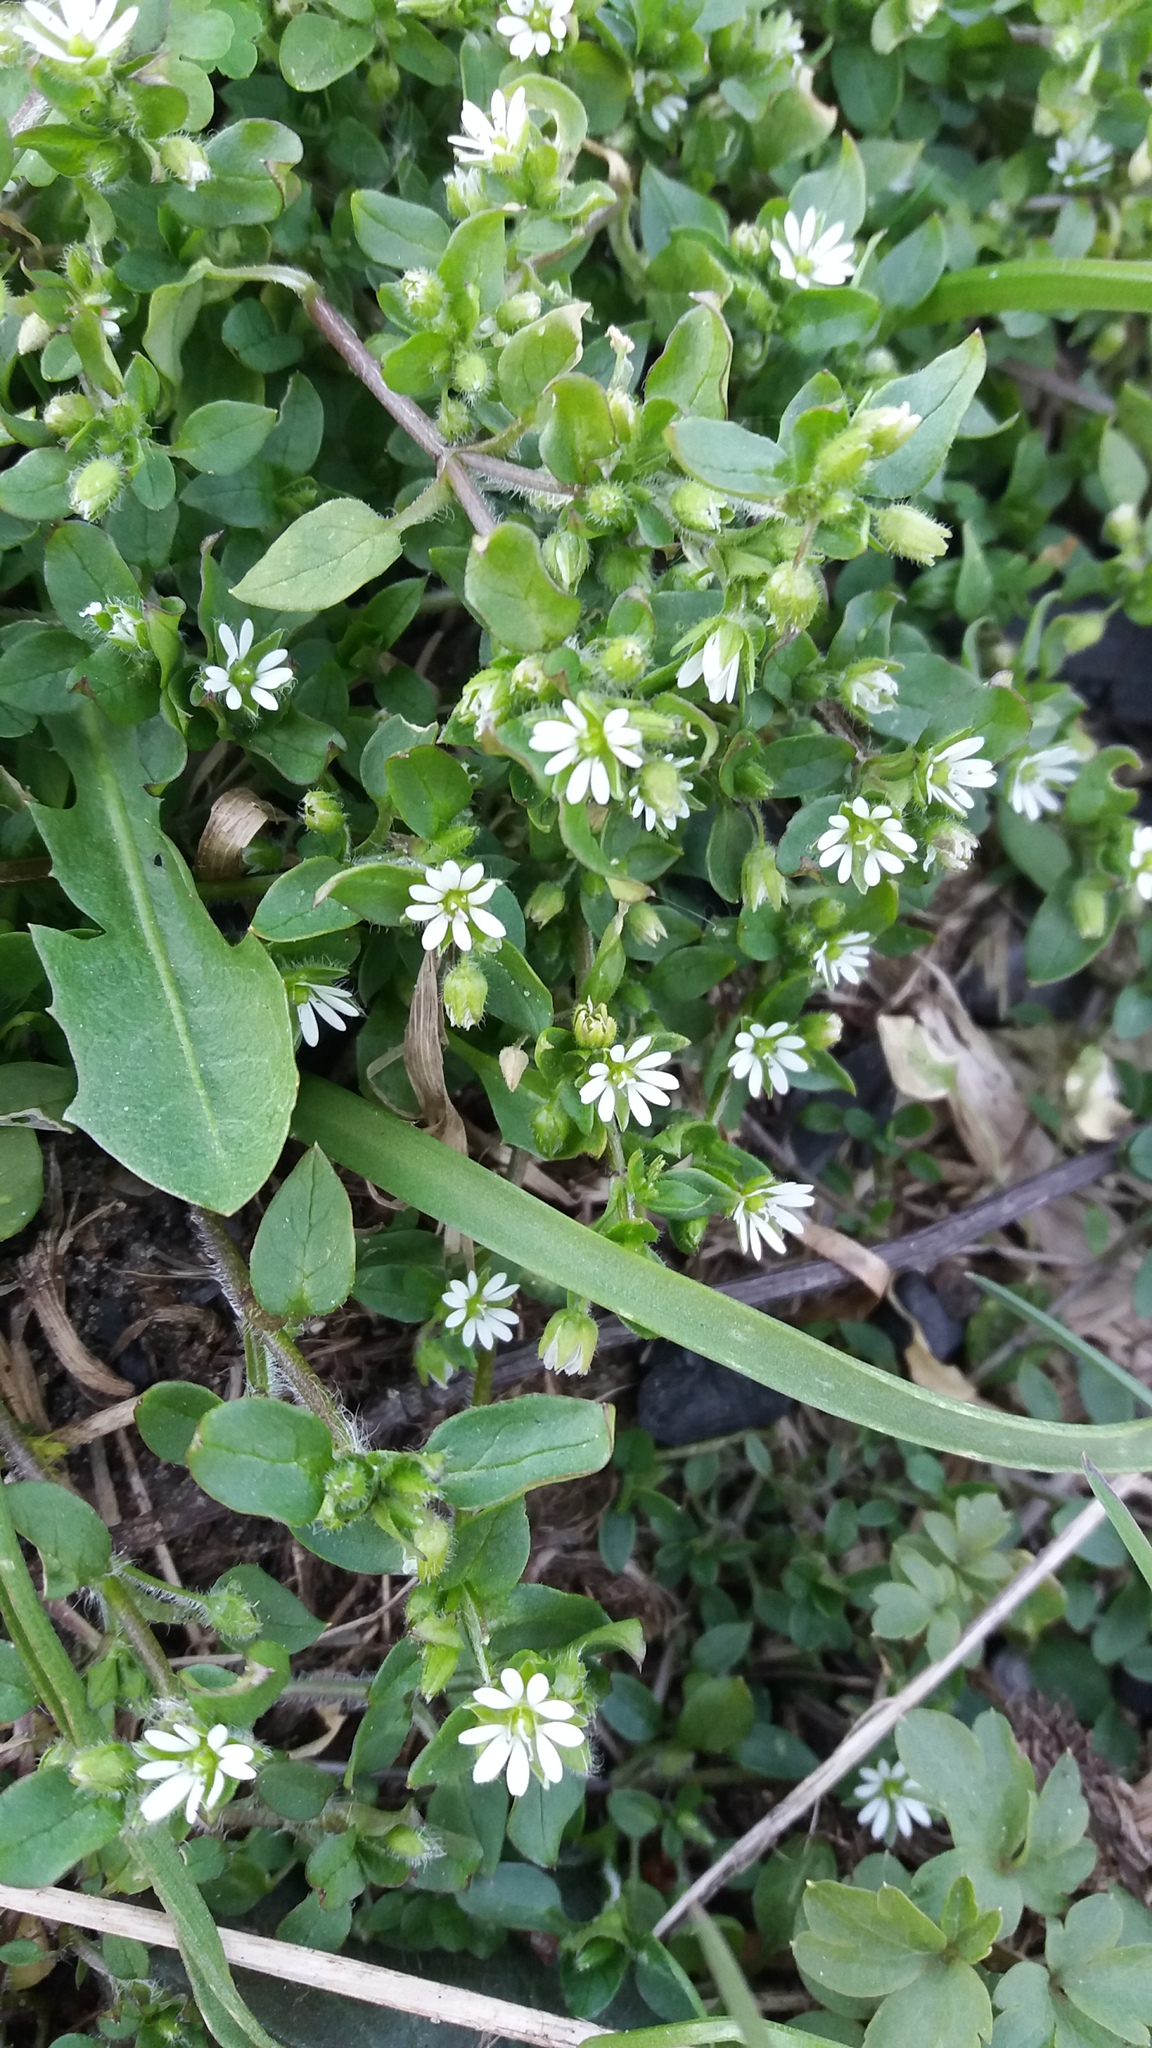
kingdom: Plantae
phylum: Tracheophyta
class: Magnoliopsida
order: Caryophyllales
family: Caryophyllaceae
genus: Stellaria
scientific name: Stellaria media
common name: Common chickweed
